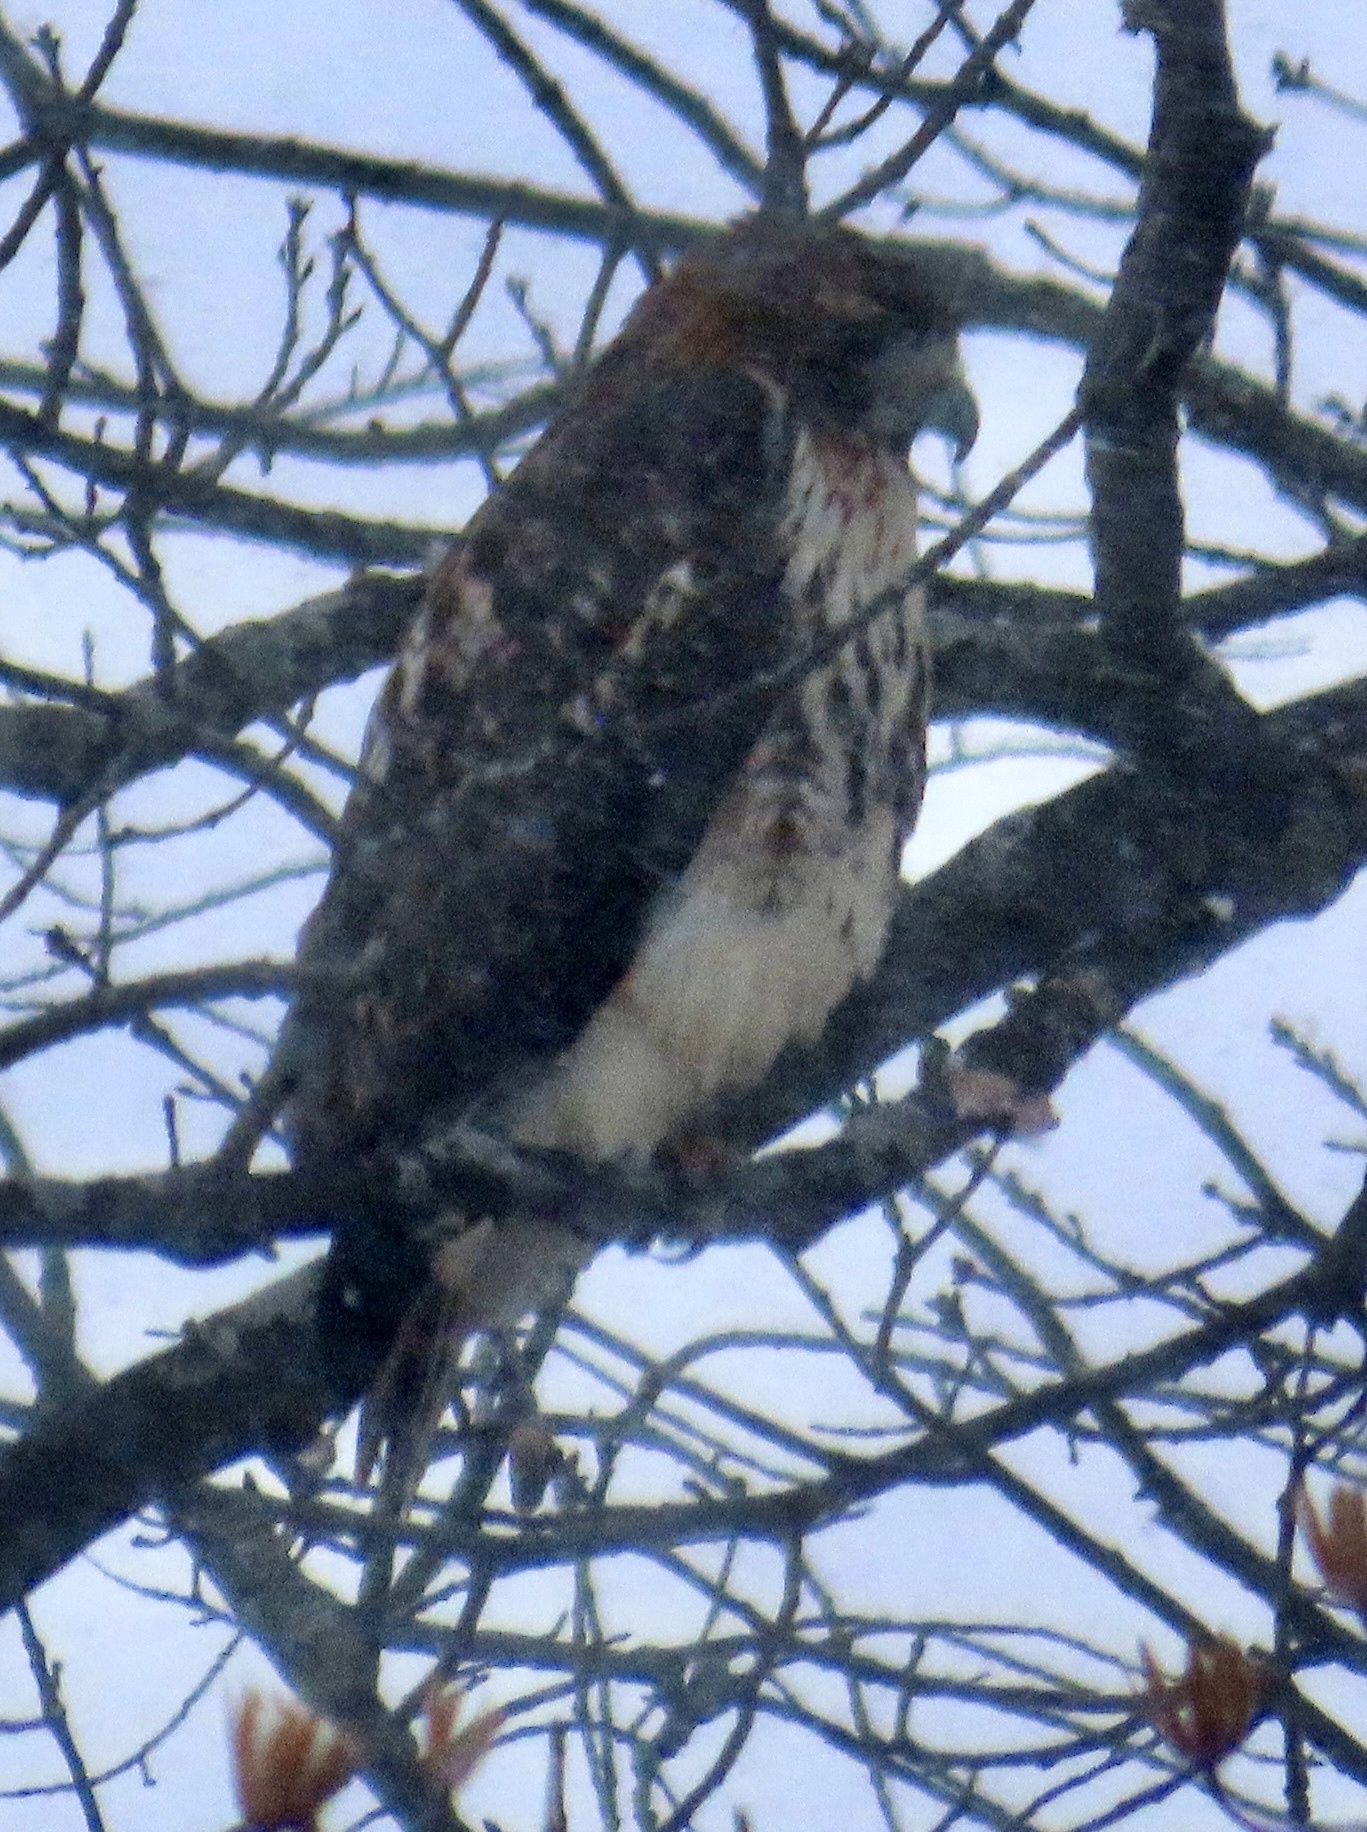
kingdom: Animalia
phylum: Chordata
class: Aves
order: Accipitriformes
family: Accipitridae
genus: Buteo
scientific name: Buteo jamaicensis
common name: Red-tailed hawk
